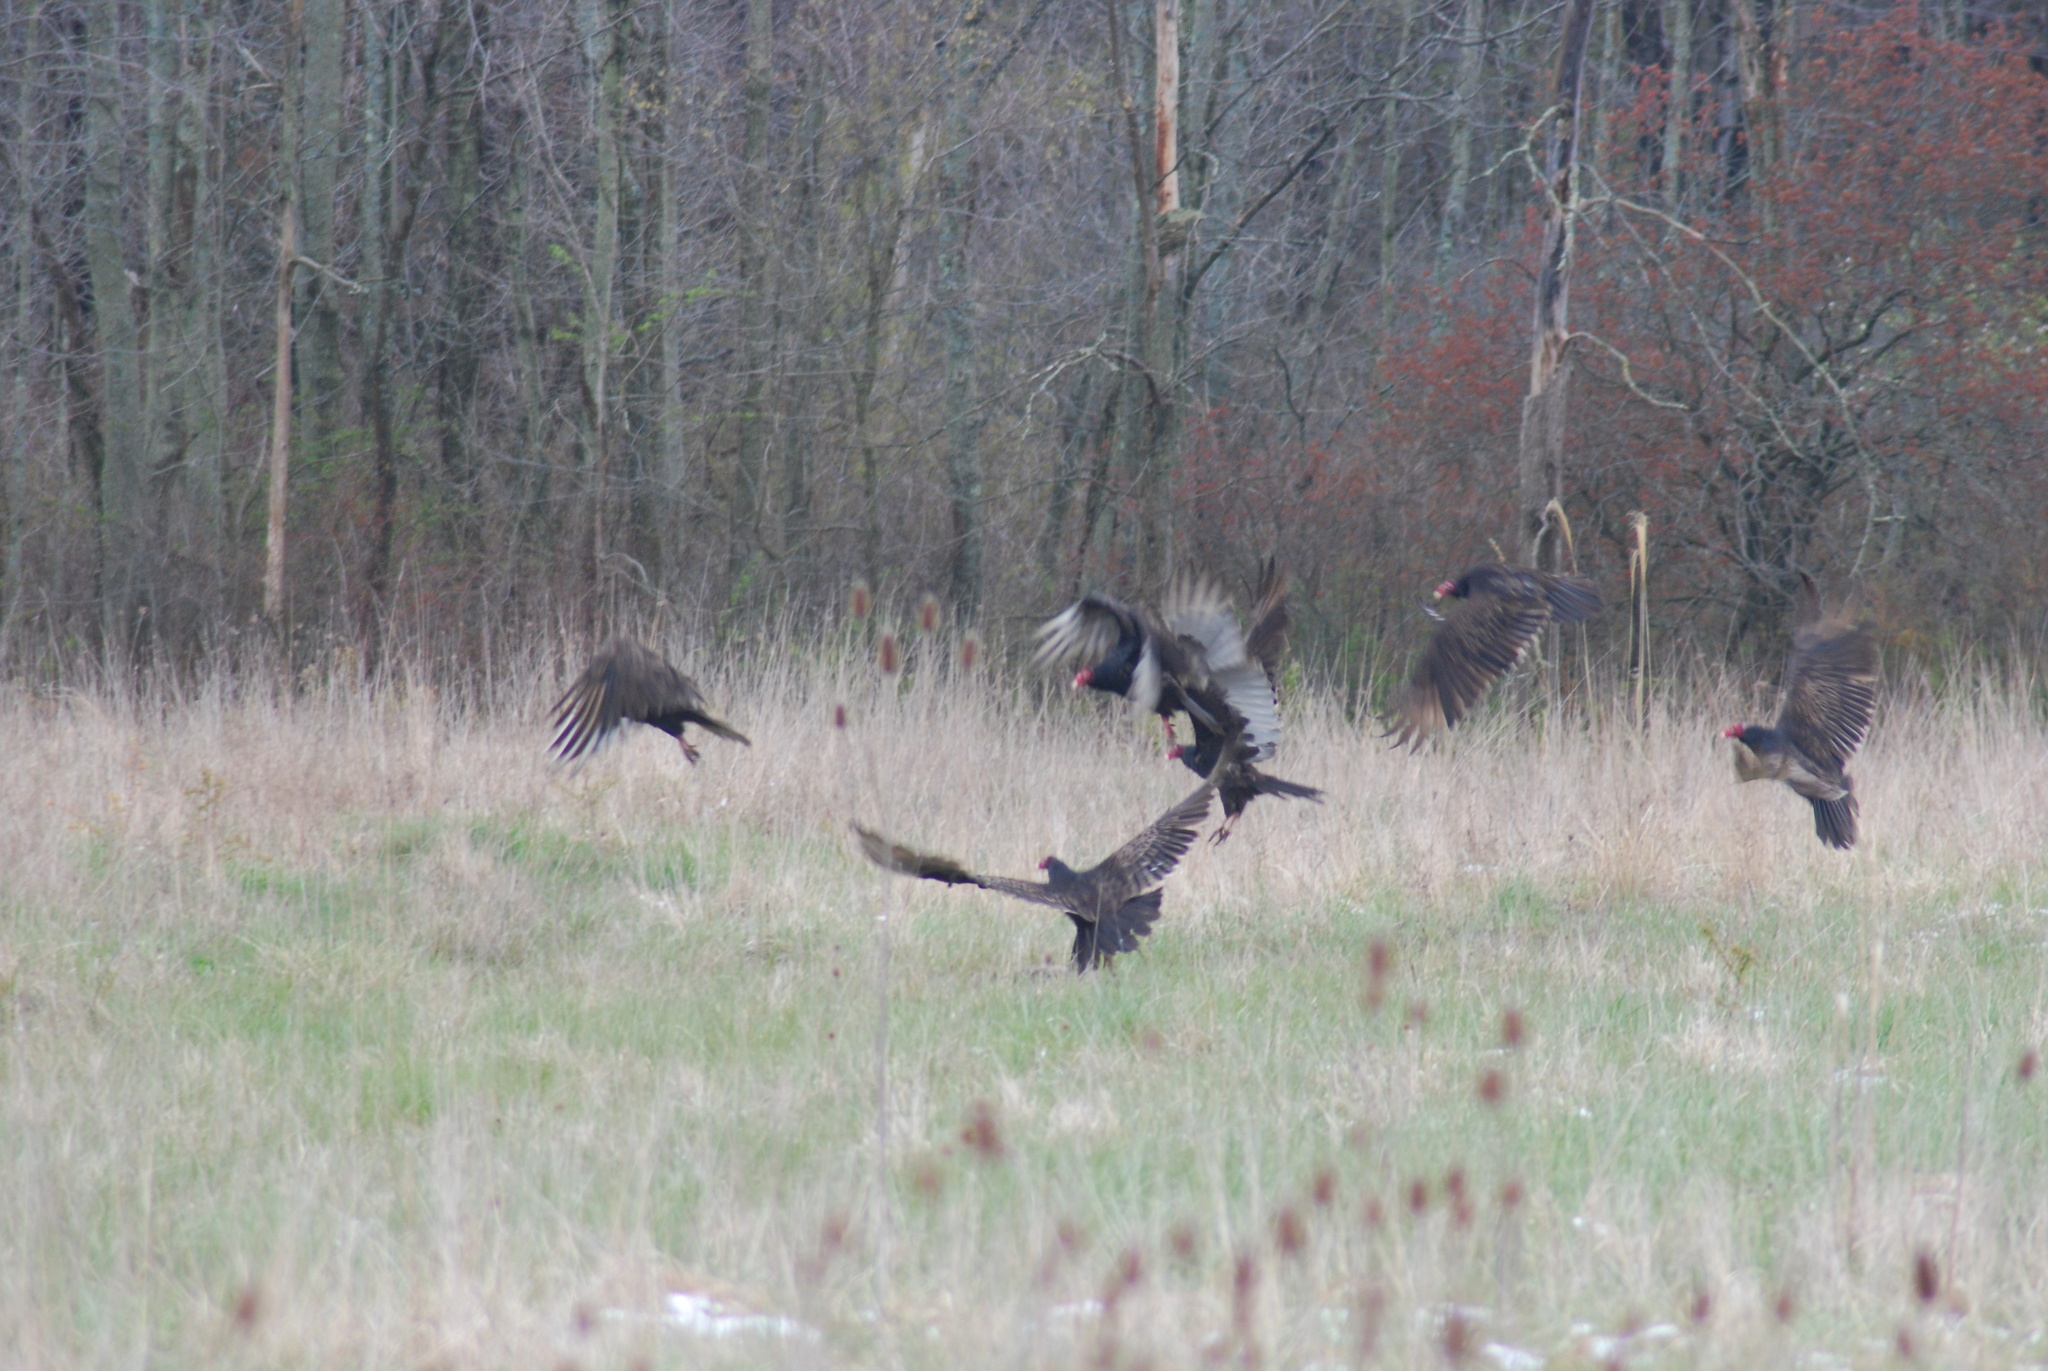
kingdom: Animalia
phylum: Chordata
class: Aves
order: Accipitriformes
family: Cathartidae
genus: Cathartes
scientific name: Cathartes aura
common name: Turkey vulture
